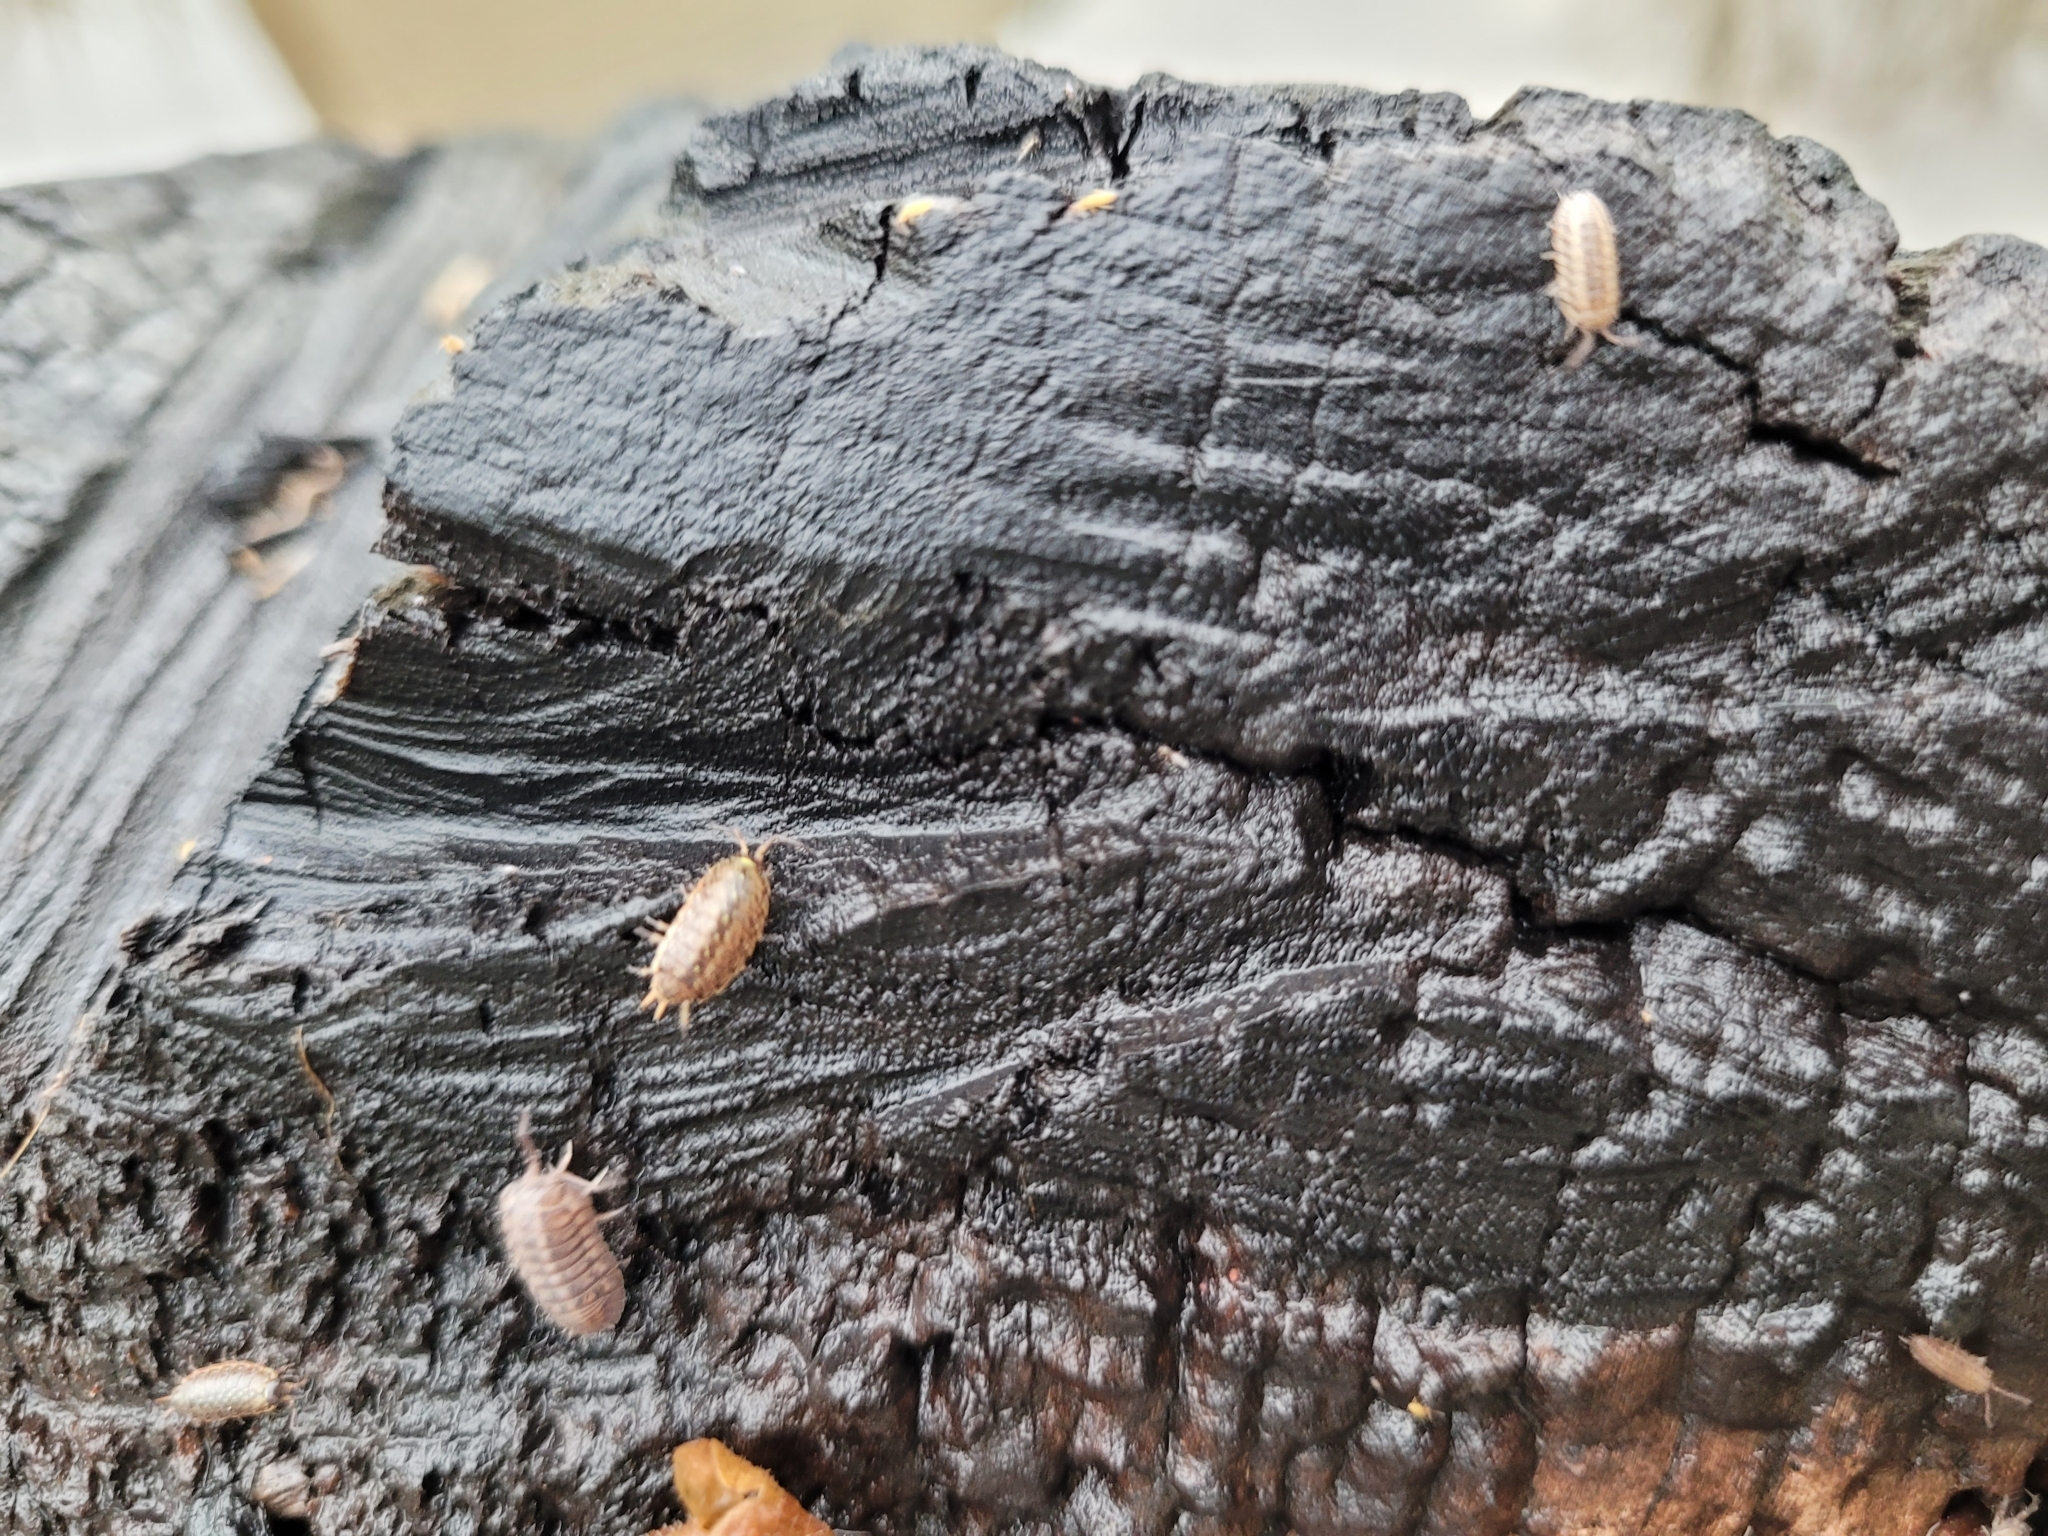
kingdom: Animalia
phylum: Arthropoda
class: Malacostraca
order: Isopoda
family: Philosciidae
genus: Philoscia
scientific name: Philoscia muscorum
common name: Common striped woodlouse
